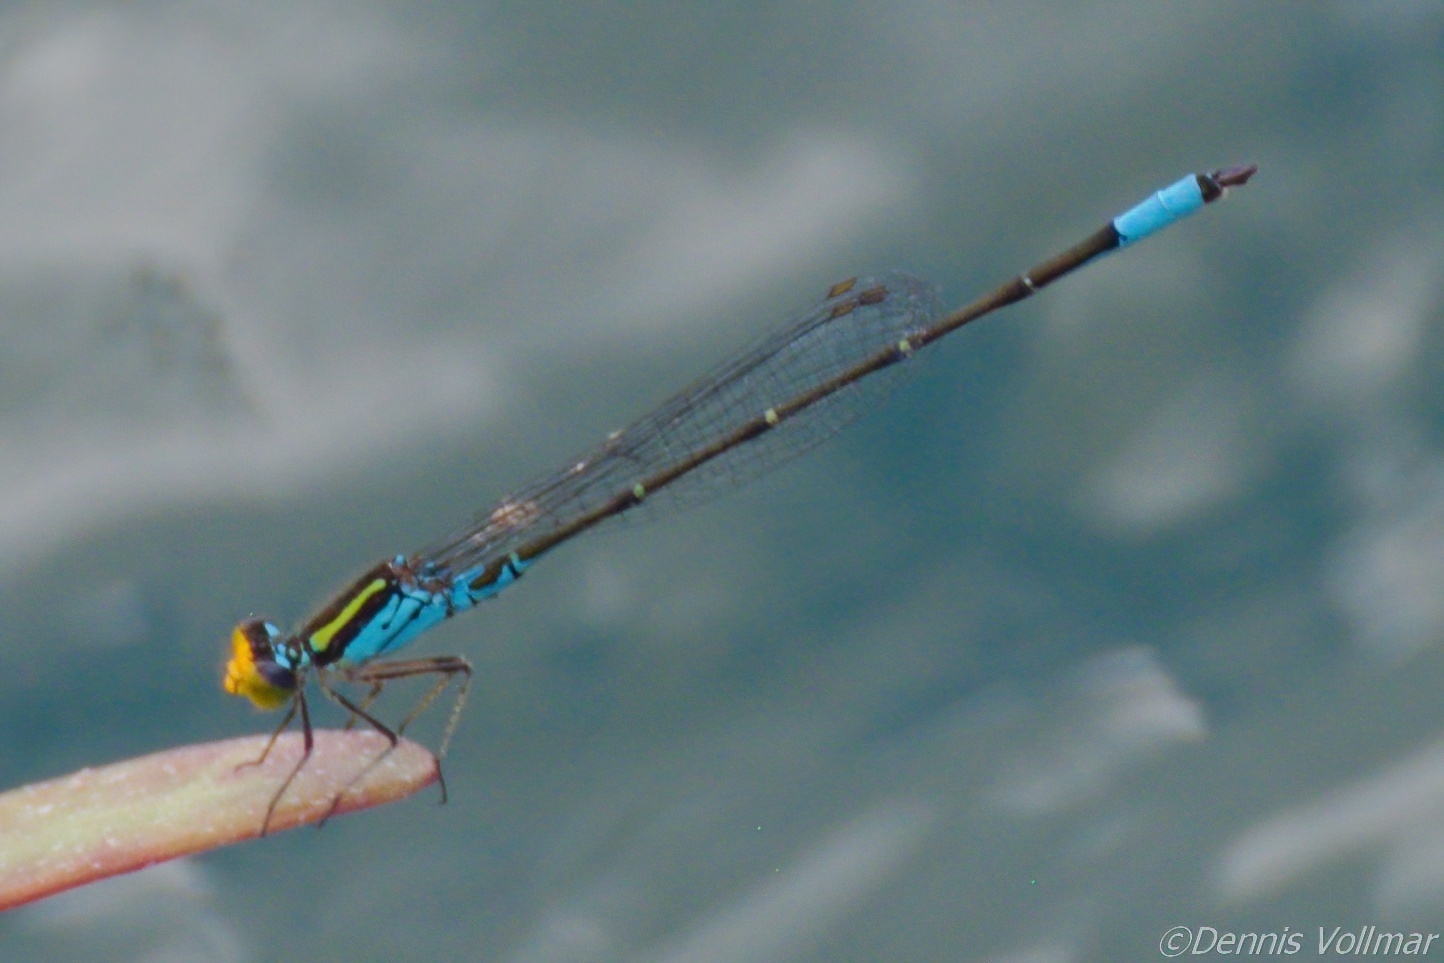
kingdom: Animalia
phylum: Arthropoda
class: Insecta
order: Odonata
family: Coenagrionidae
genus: Neoerythromma
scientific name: Neoerythromma cultellatum
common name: Caribbean yellowface
